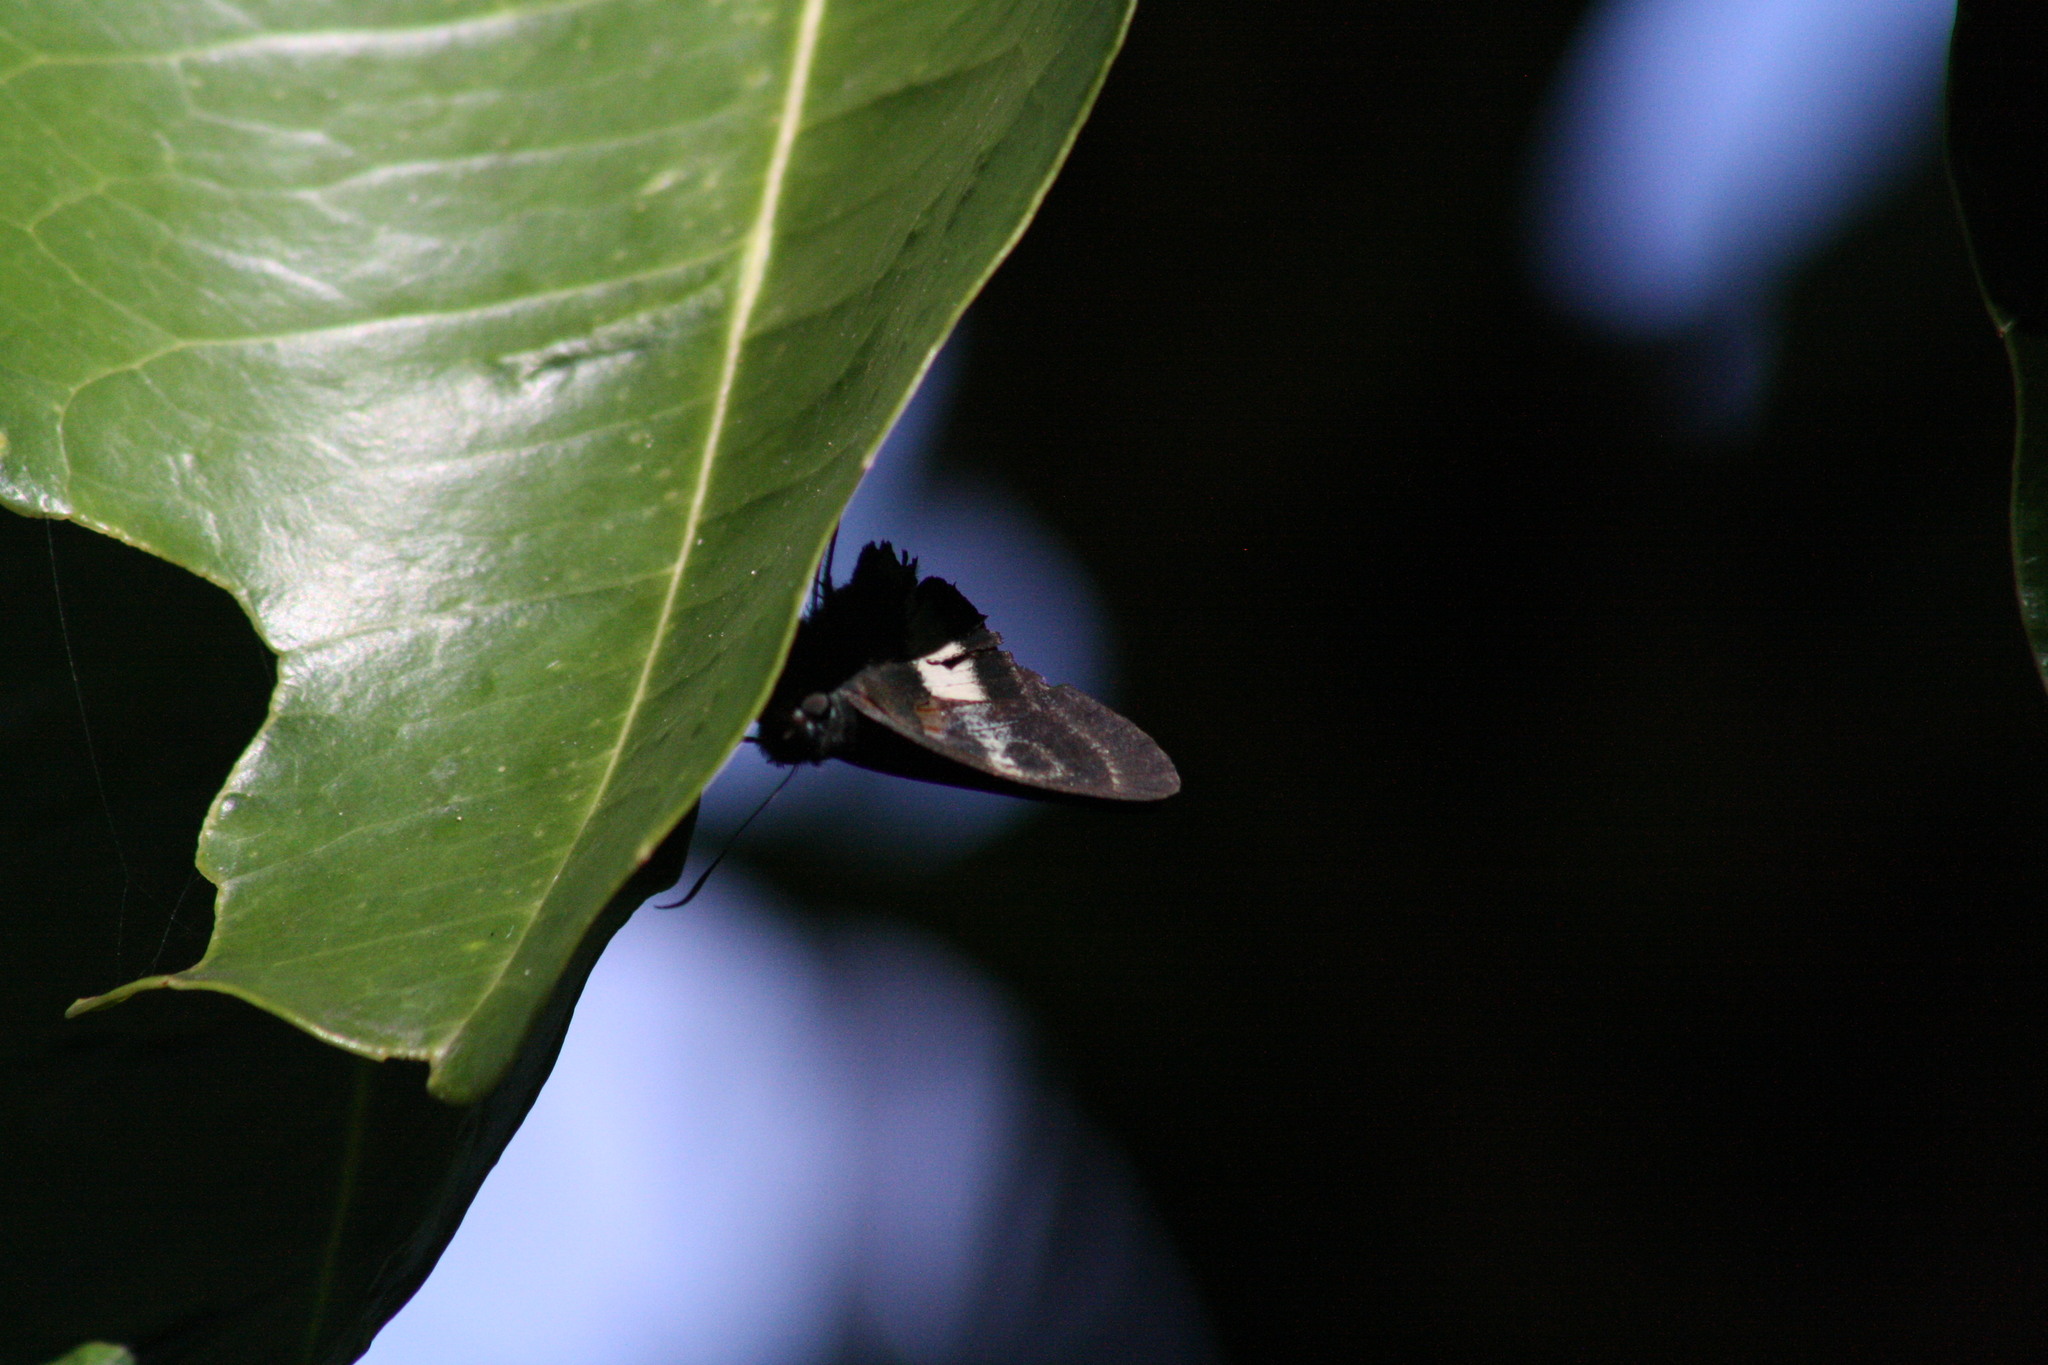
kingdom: Animalia
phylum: Arthropoda
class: Insecta
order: Lepidoptera
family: Hesperiidae
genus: Hasora
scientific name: Hasora discolor
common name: Green awl
